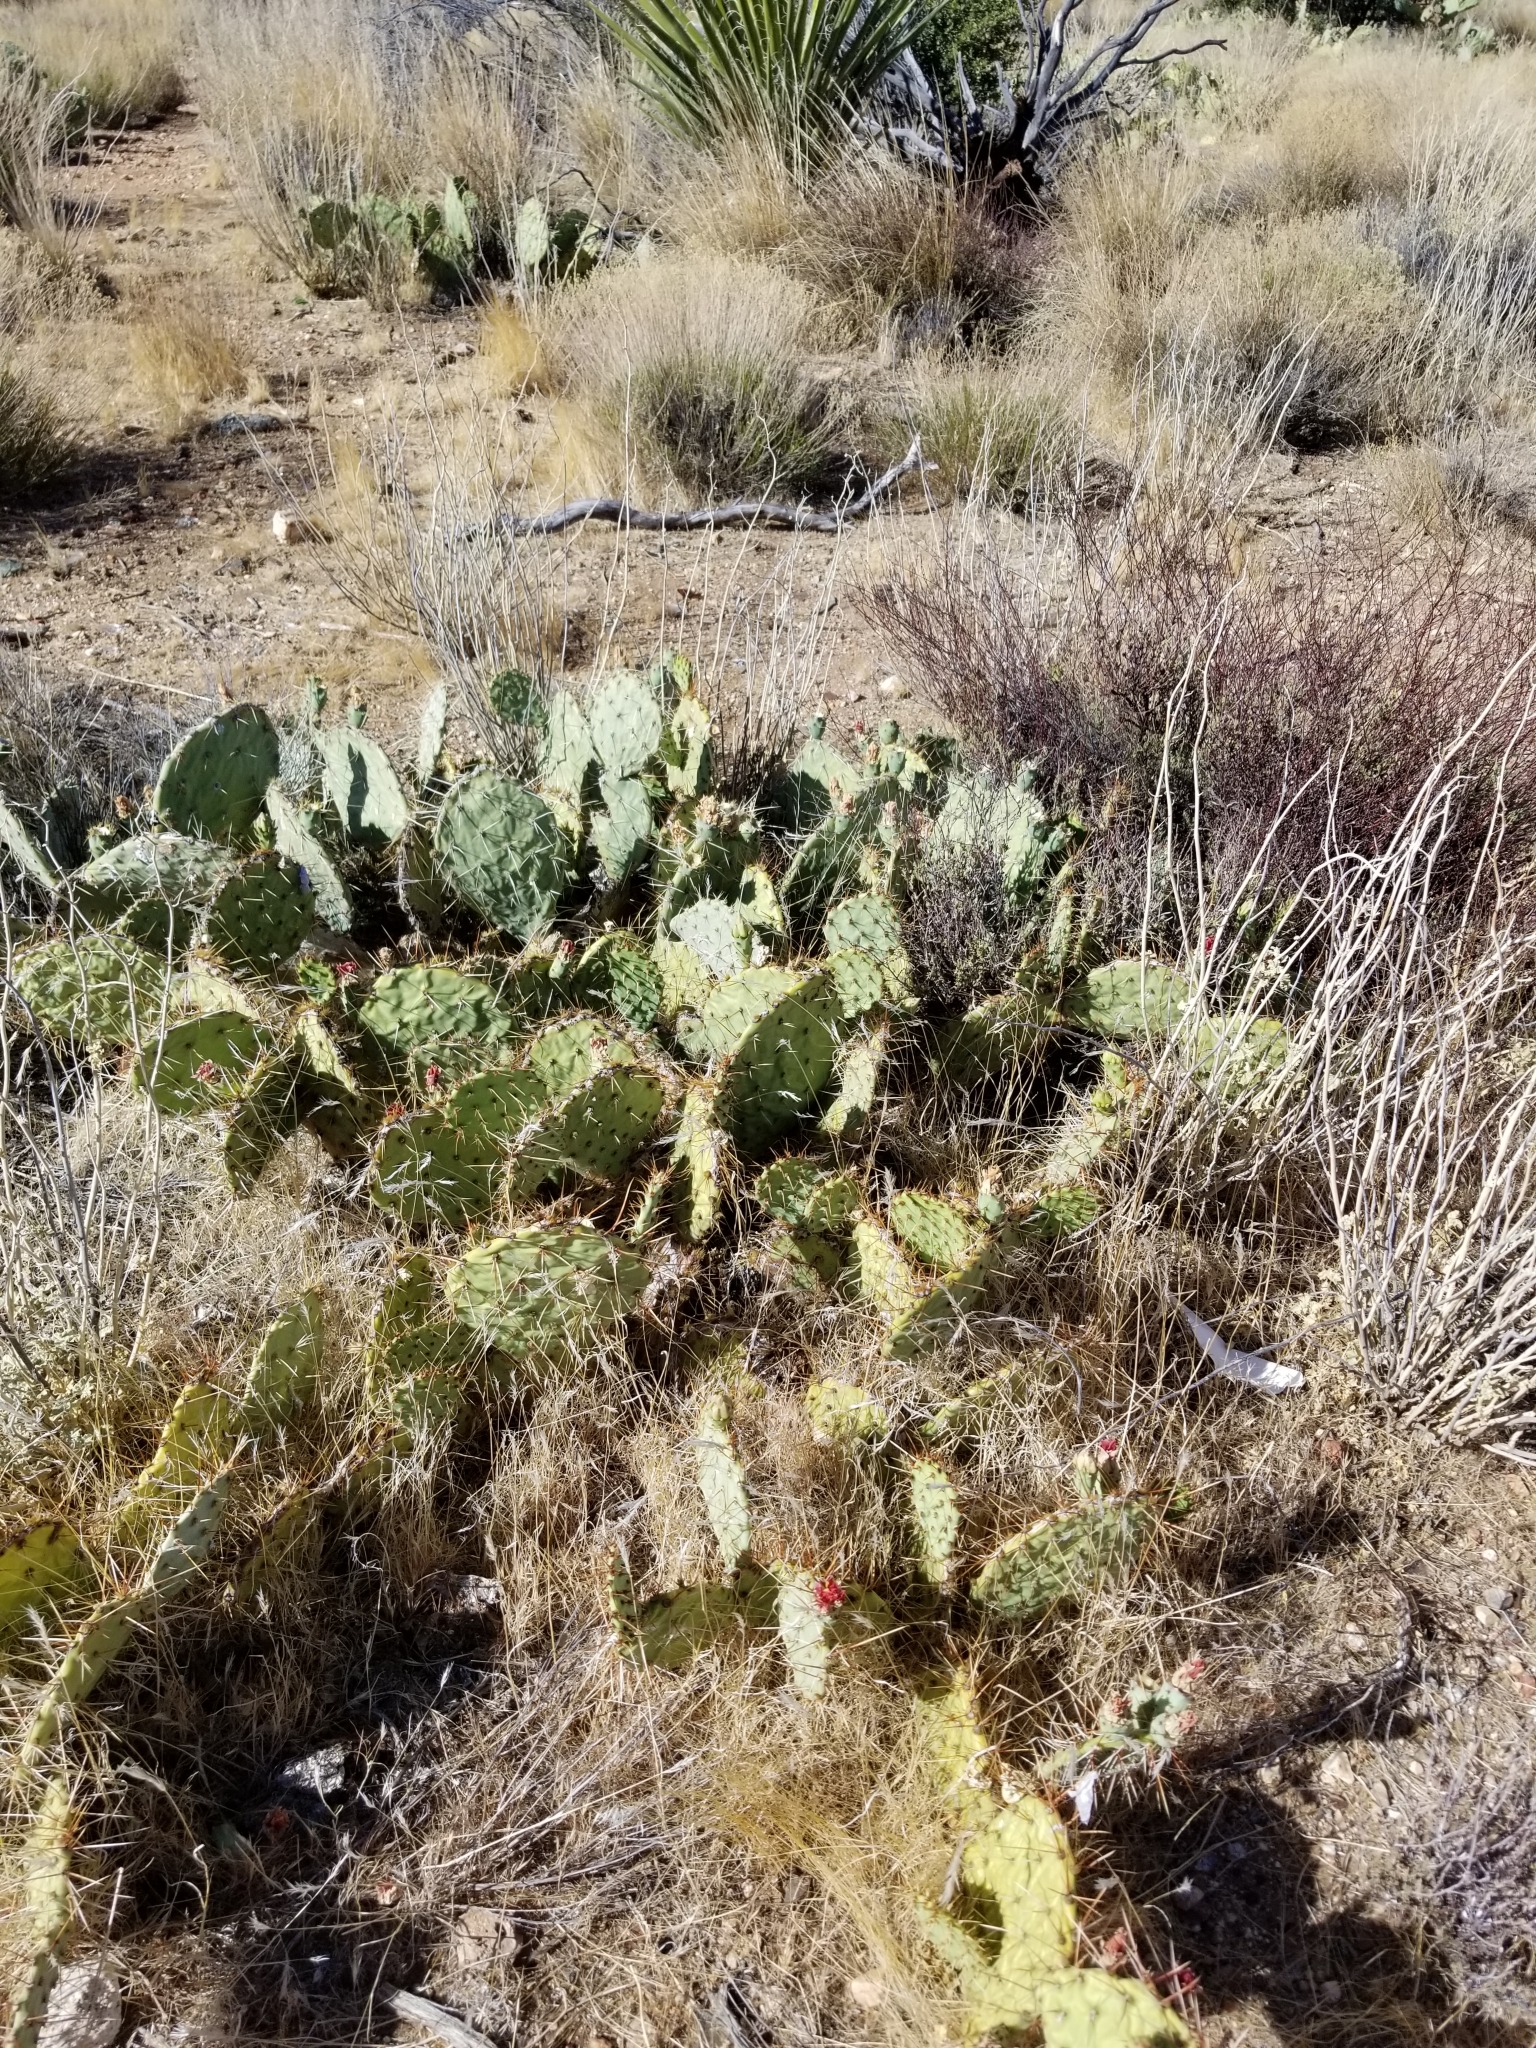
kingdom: Plantae
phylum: Tracheophyta
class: Magnoliopsida
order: Caryophyllales
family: Cactaceae
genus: Opuntia
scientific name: Opuntia phaeacantha
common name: New mexico prickly-pear
